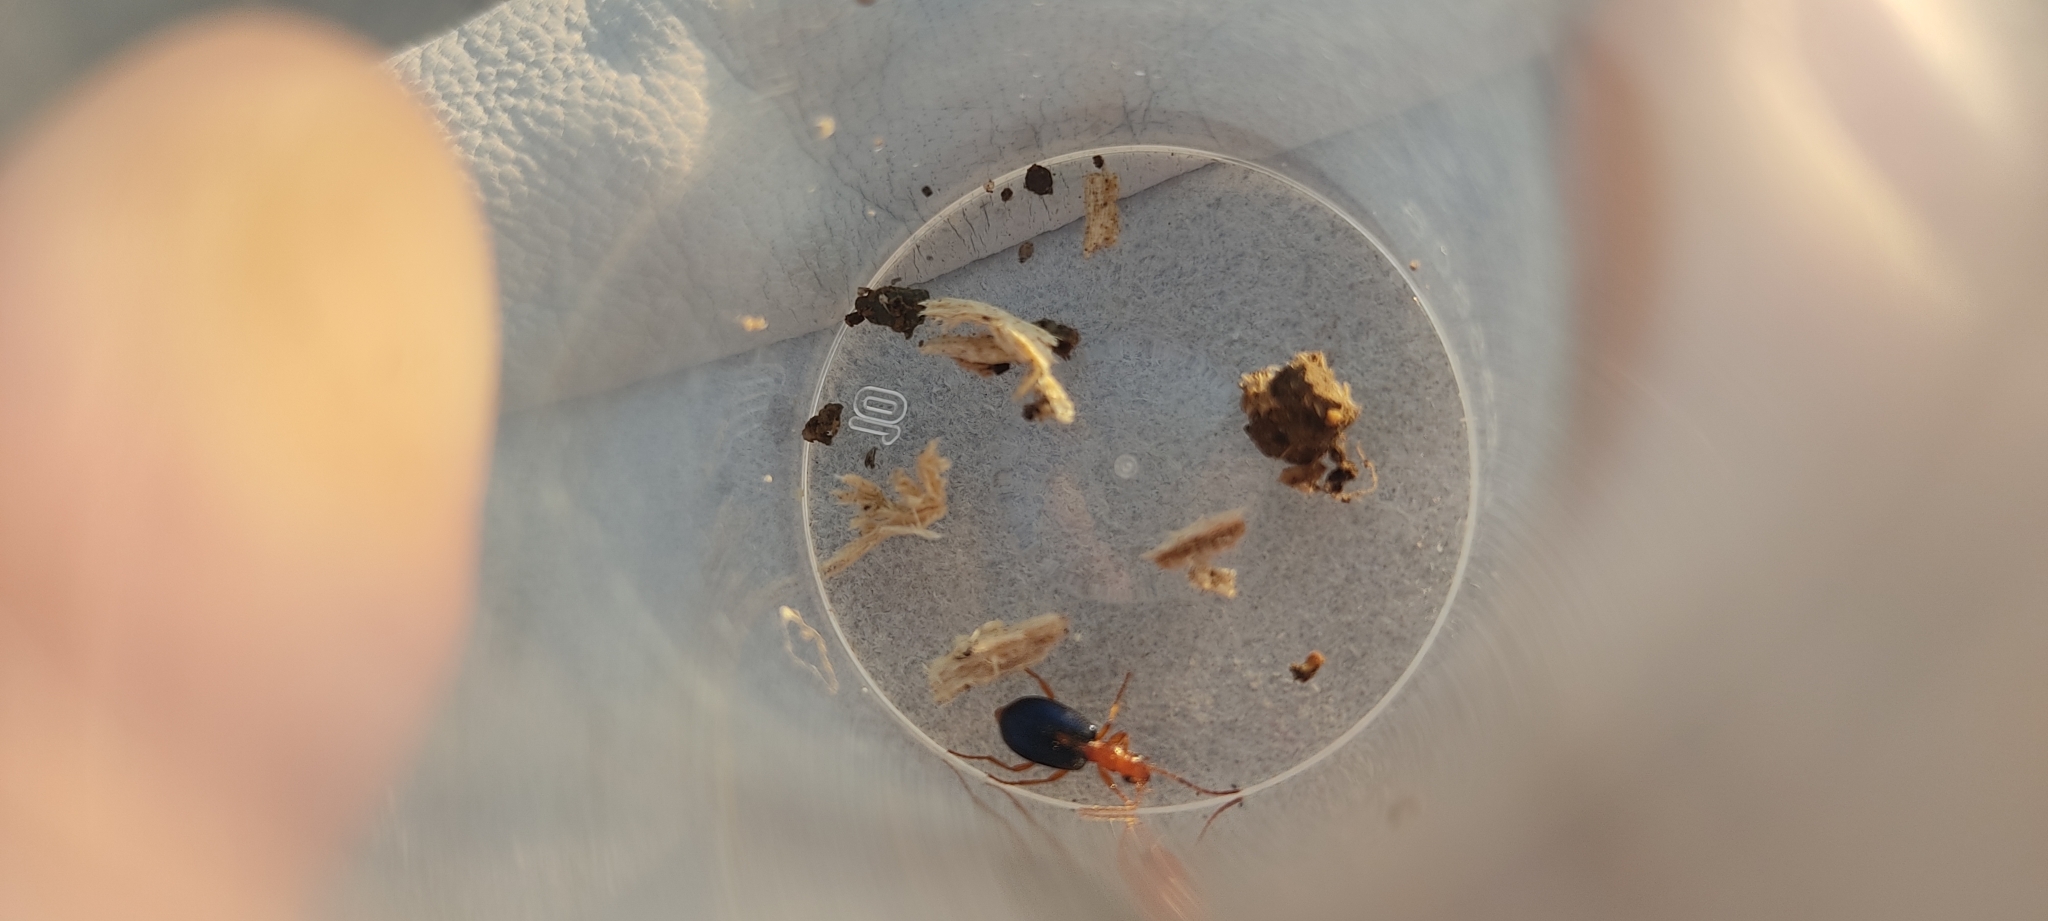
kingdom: Animalia
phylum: Arthropoda
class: Insecta
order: Coleoptera
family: Carabidae
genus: Brachinus
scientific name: Brachinus sclopeta
